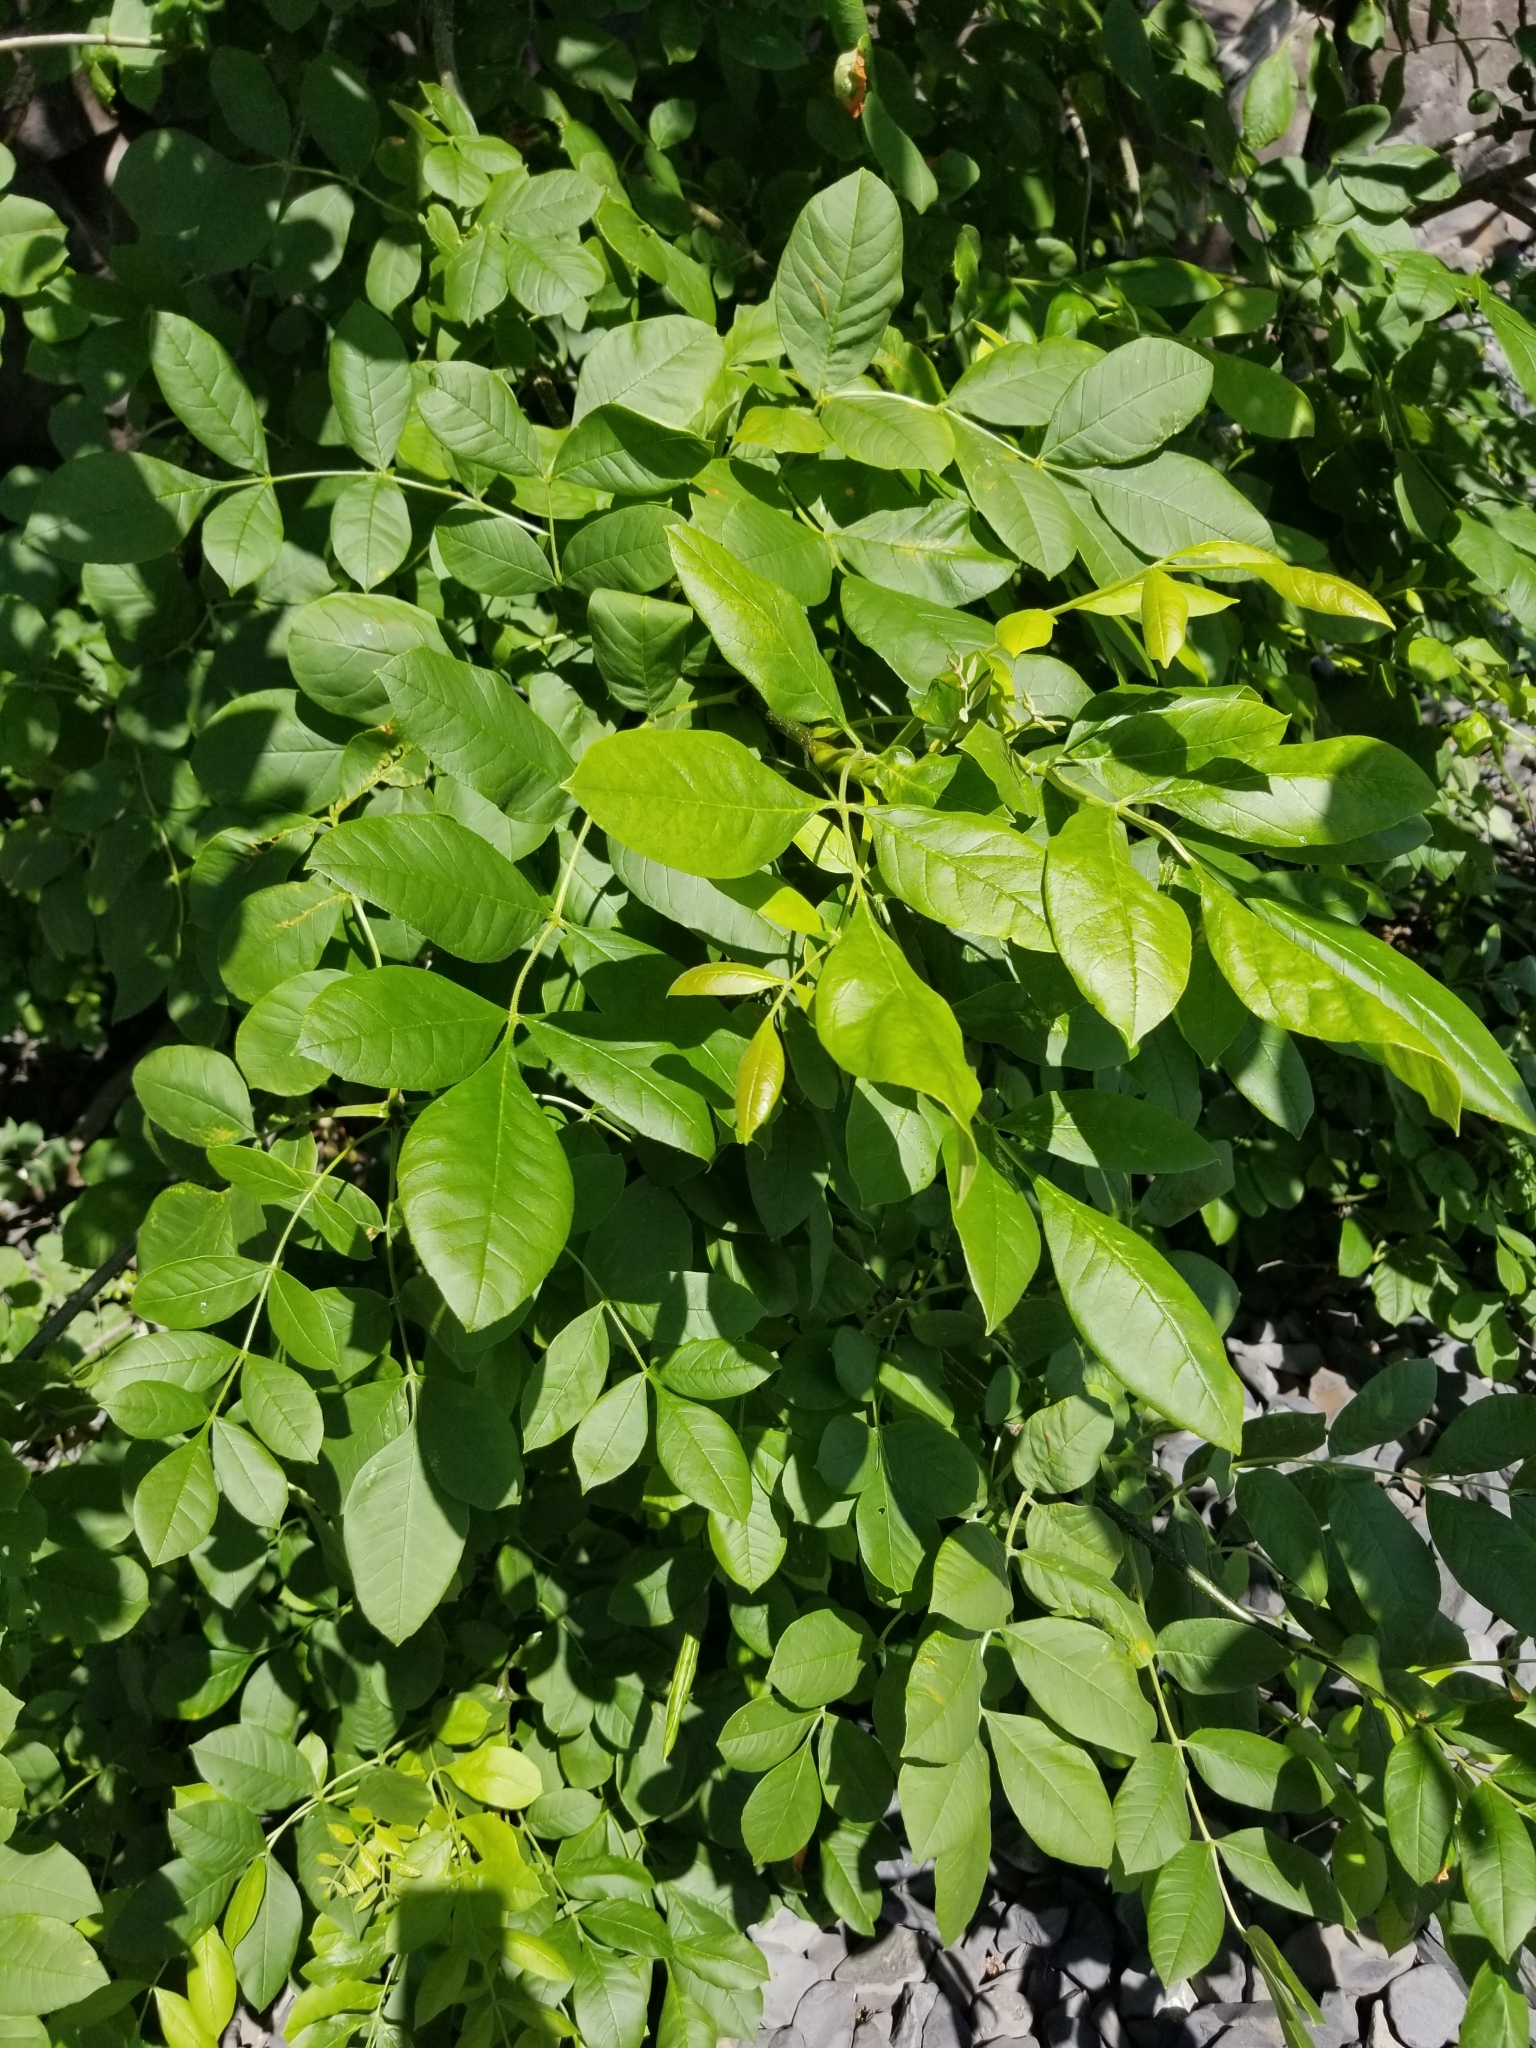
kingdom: Plantae
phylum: Tracheophyta
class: Magnoliopsida
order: Lamiales
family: Oleaceae
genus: Fraxinus
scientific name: Fraxinus latifolia
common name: Oregon ash
